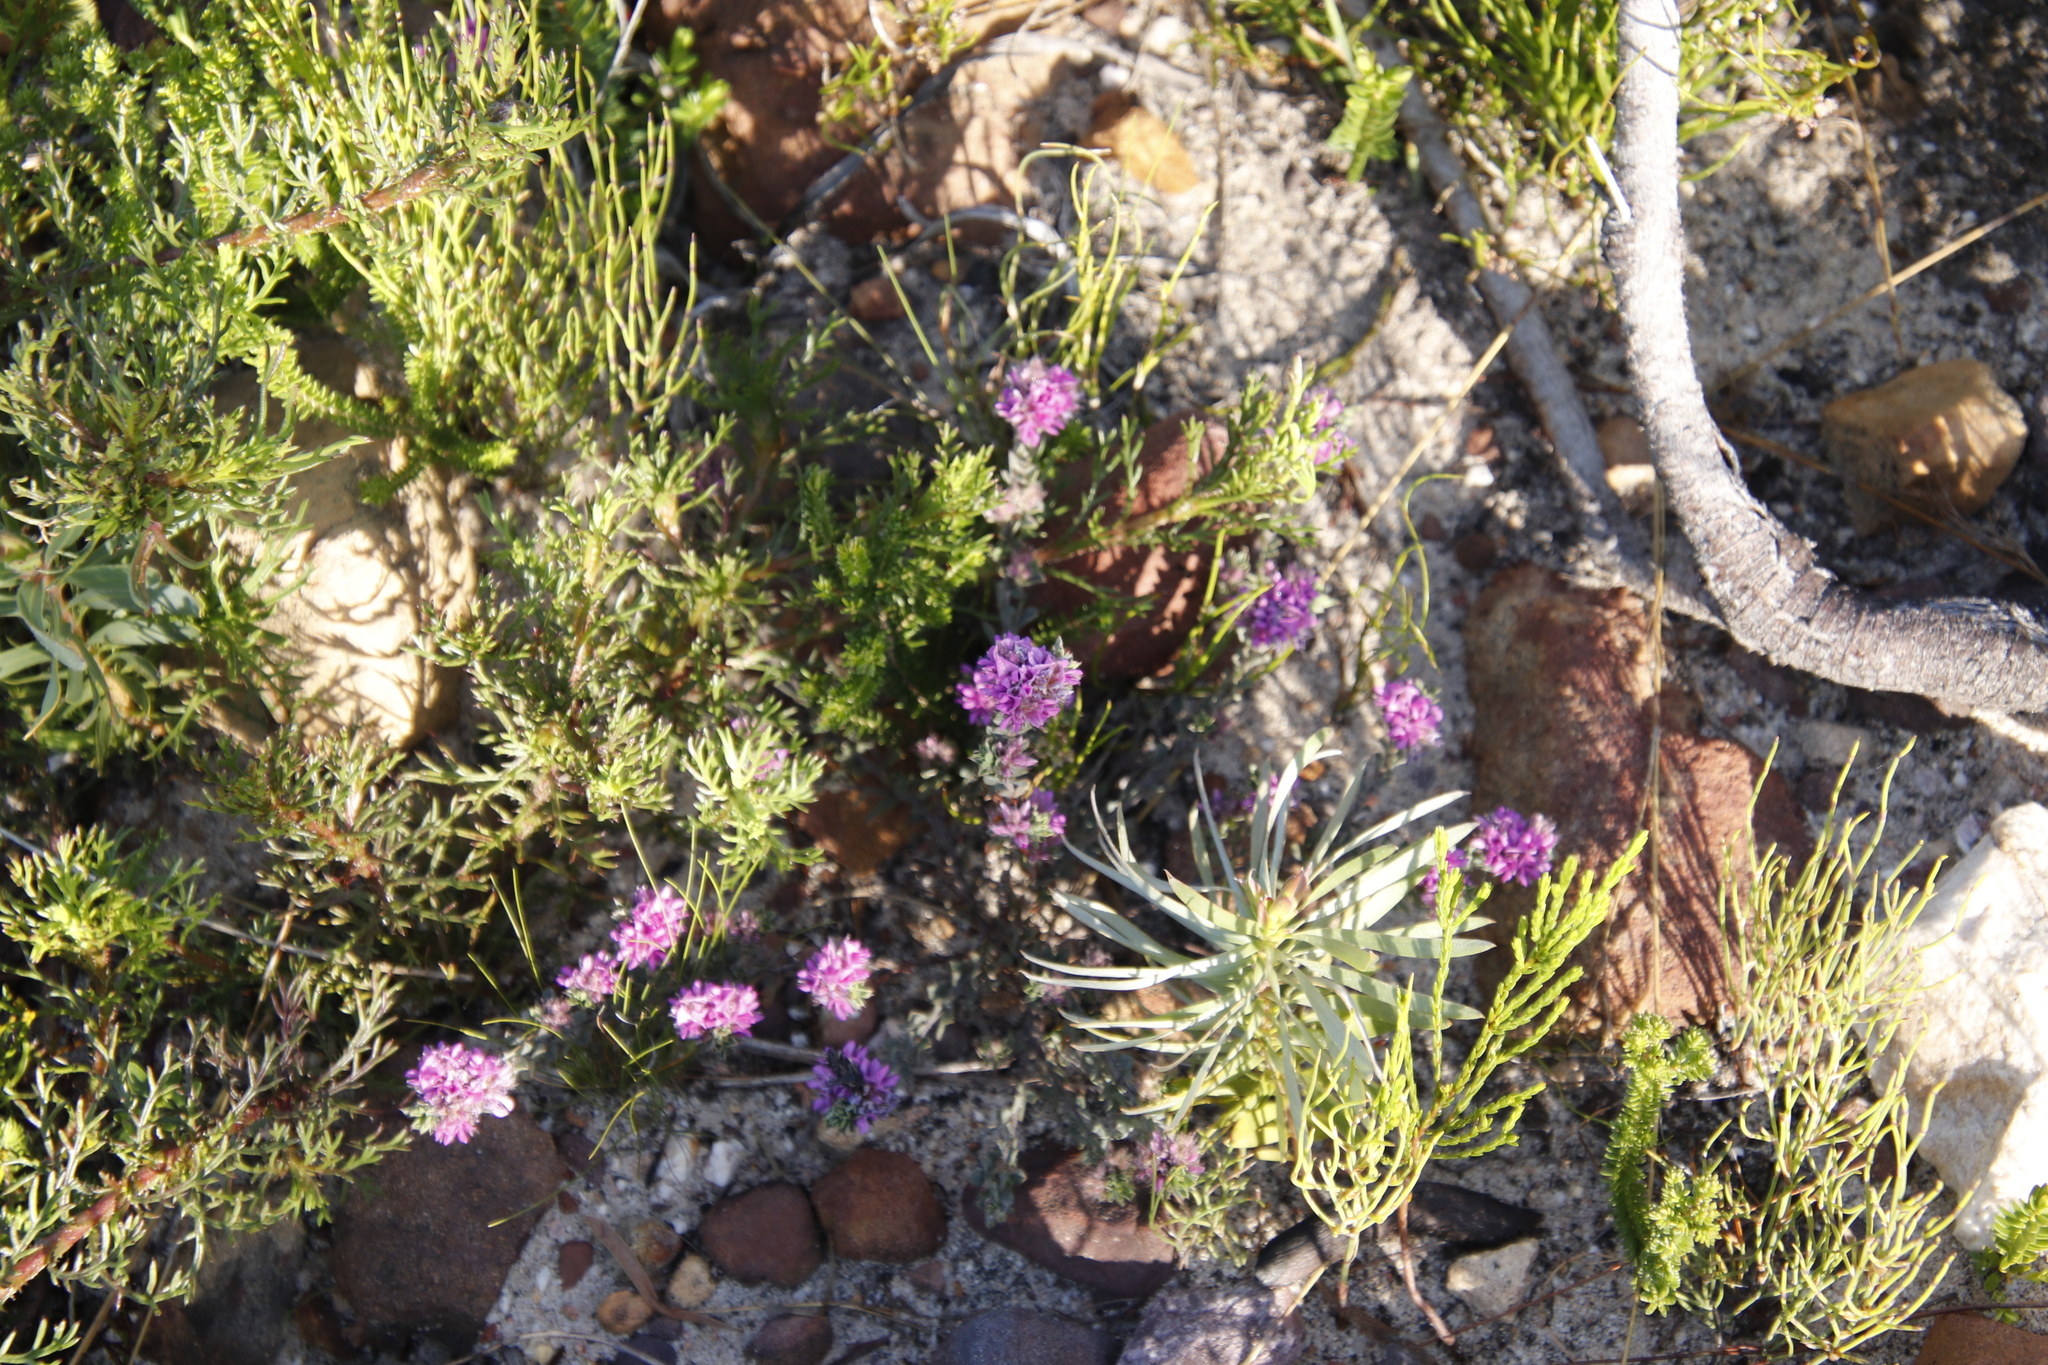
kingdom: Plantae
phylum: Tracheophyta
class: Magnoliopsida
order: Fabales
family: Fabaceae
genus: Indigofera
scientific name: Indigofera glomerata
